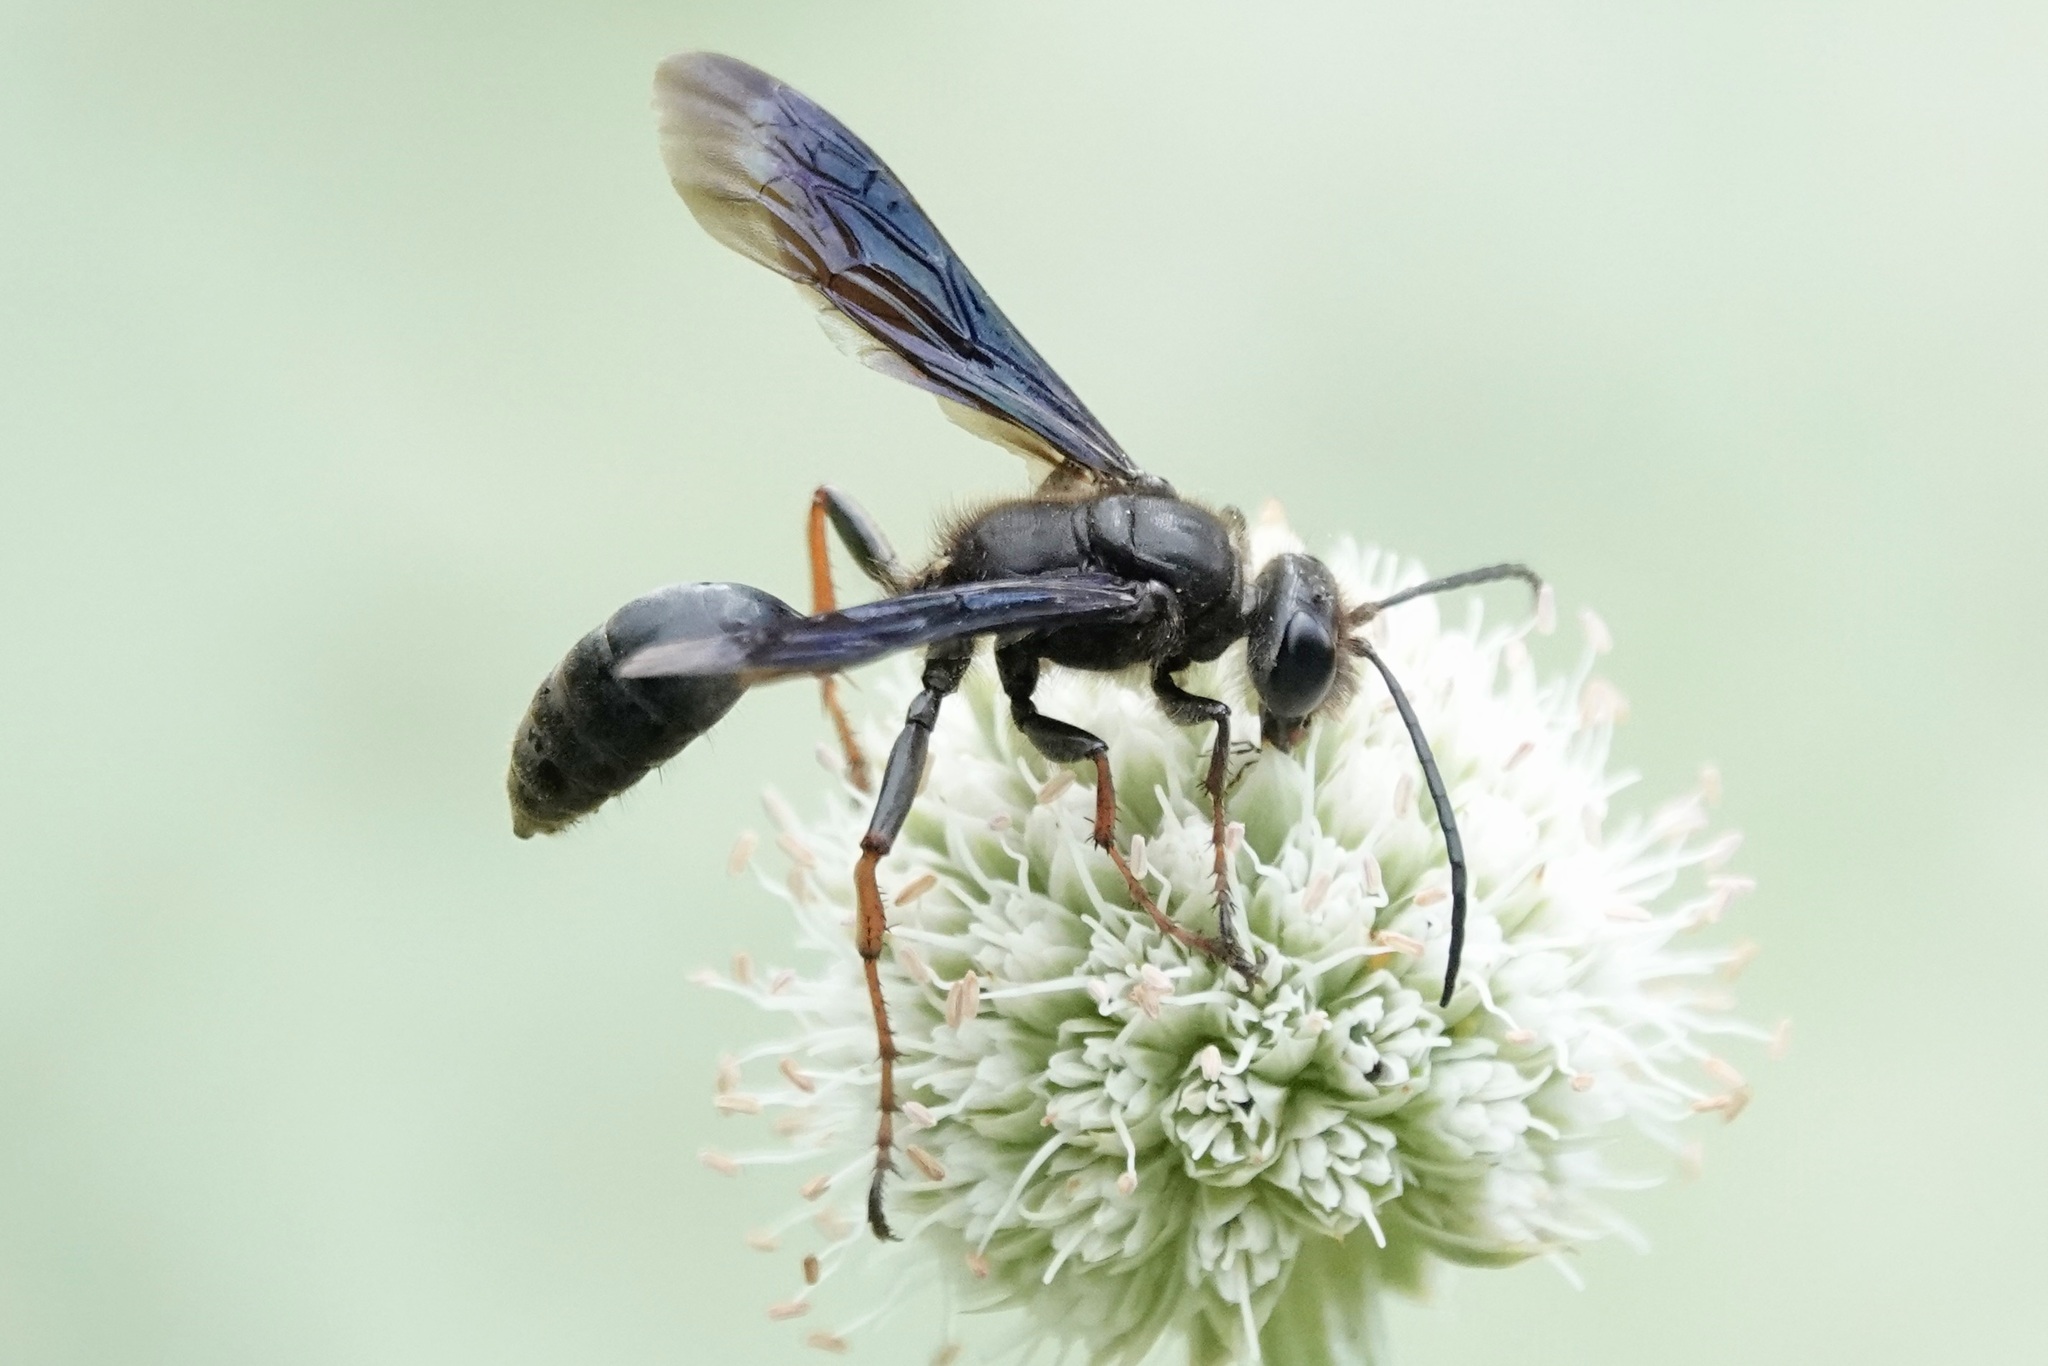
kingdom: Animalia
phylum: Arthropoda
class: Insecta
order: Hymenoptera
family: Sphecidae
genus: Isodontia
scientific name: Isodontia auripes
